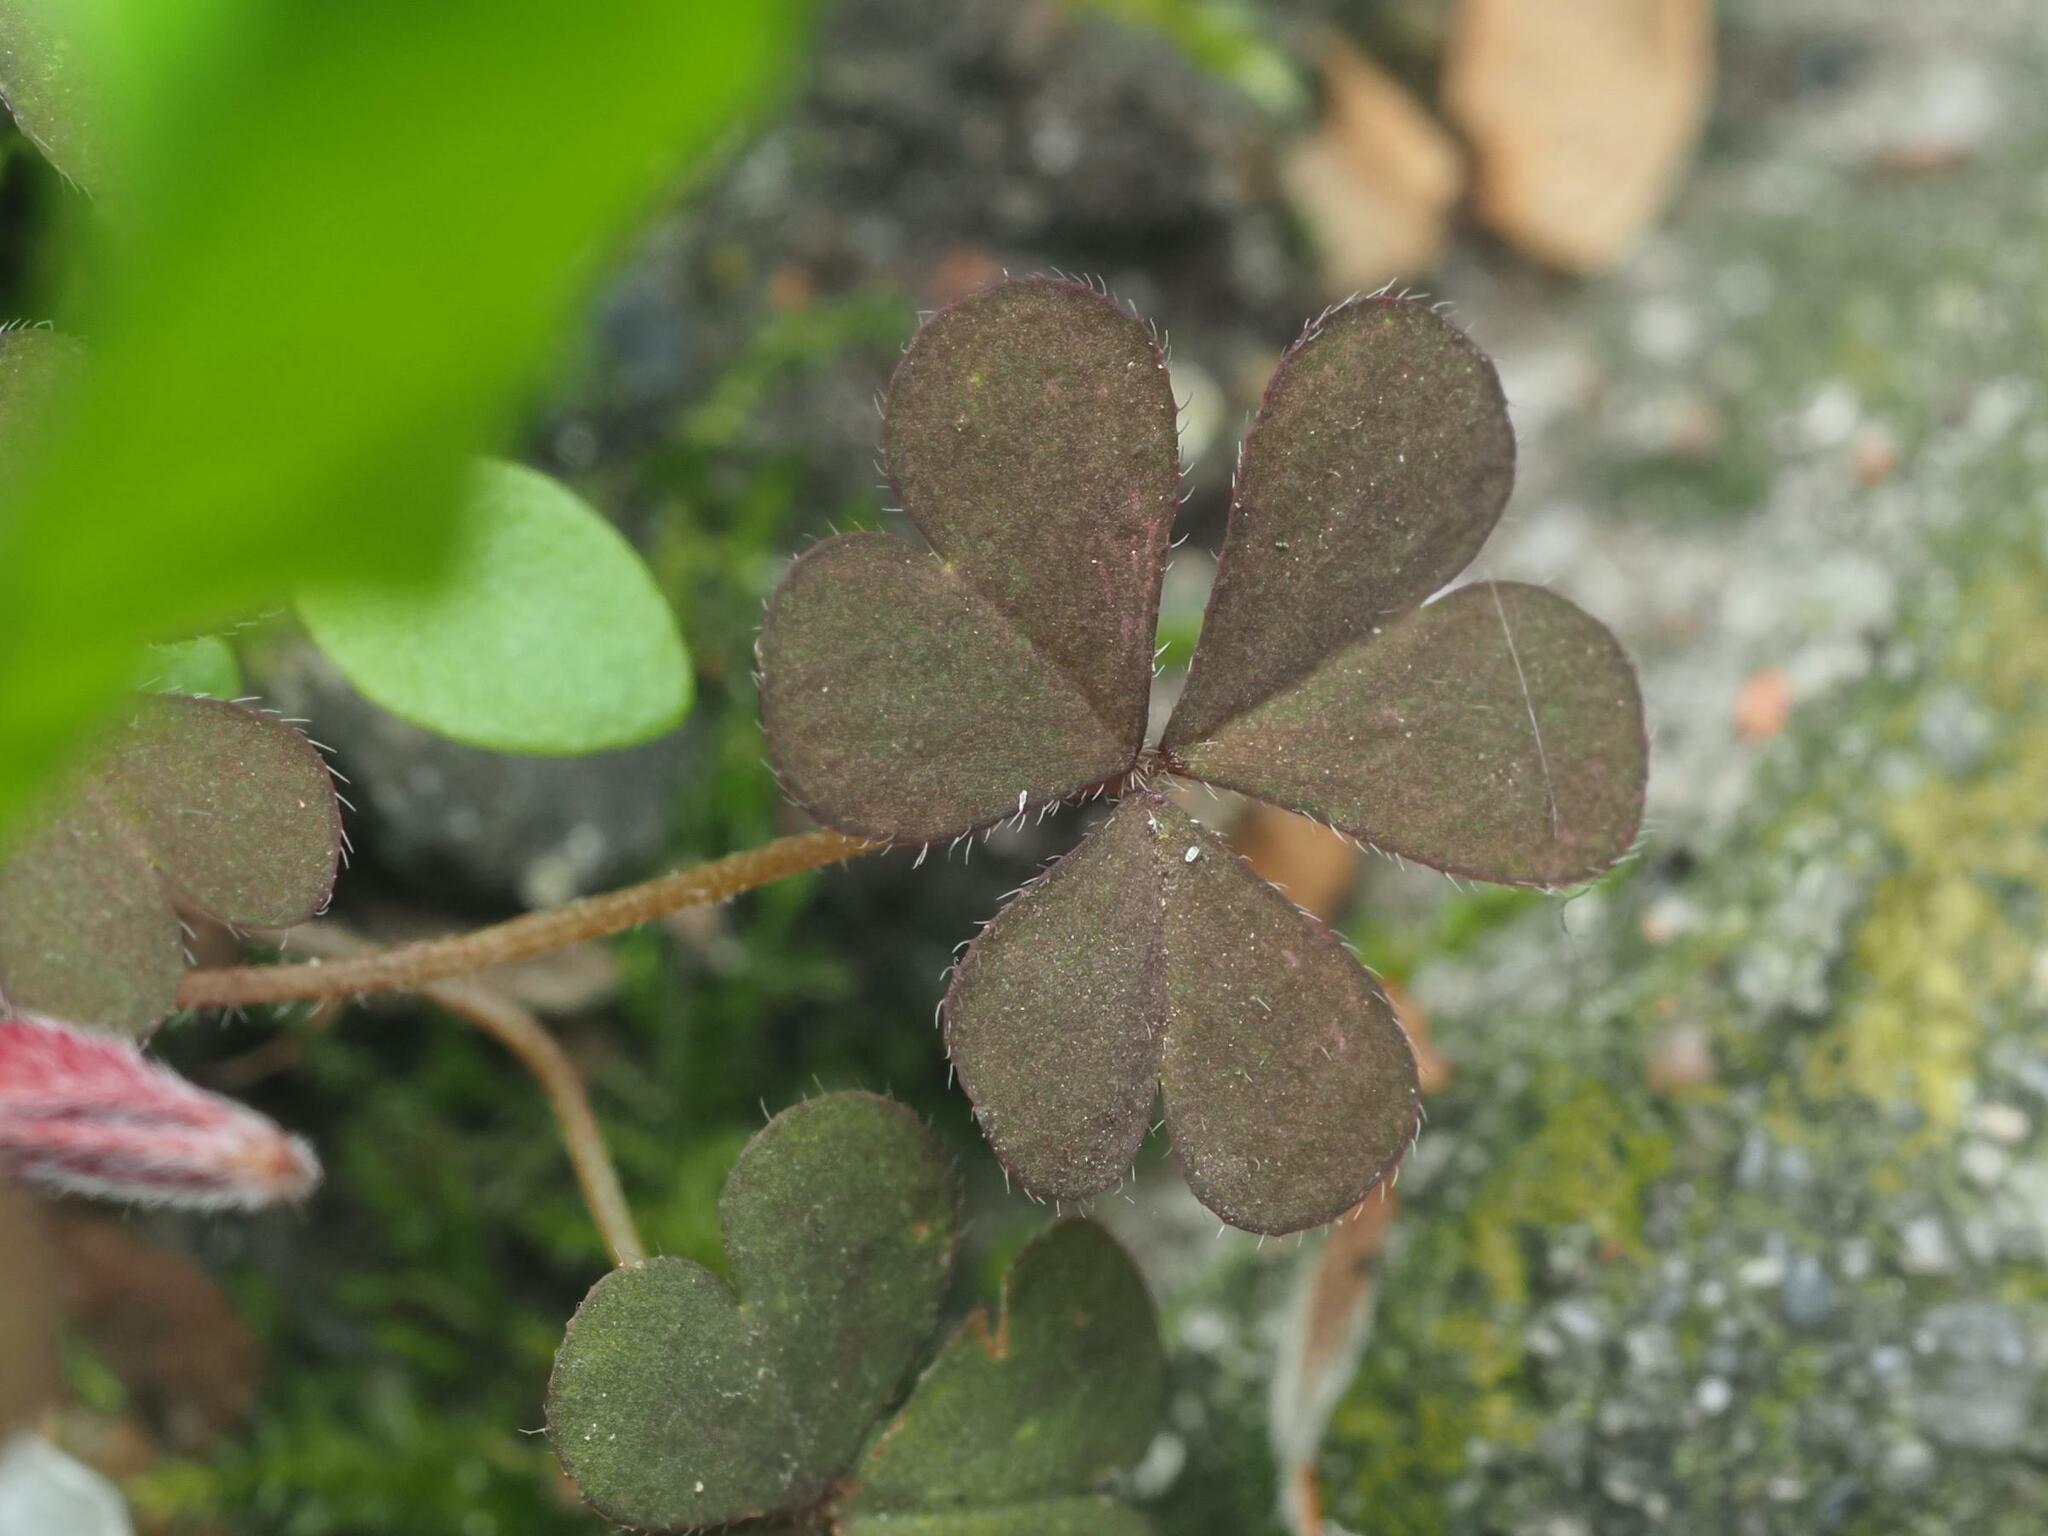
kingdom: Plantae
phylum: Tracheophyta
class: Magnoliopsida
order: Oxalidales
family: Oxalidaceae
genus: Oxalis
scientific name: Oxalis corniculata
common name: Procumbent yellow-sorrel
